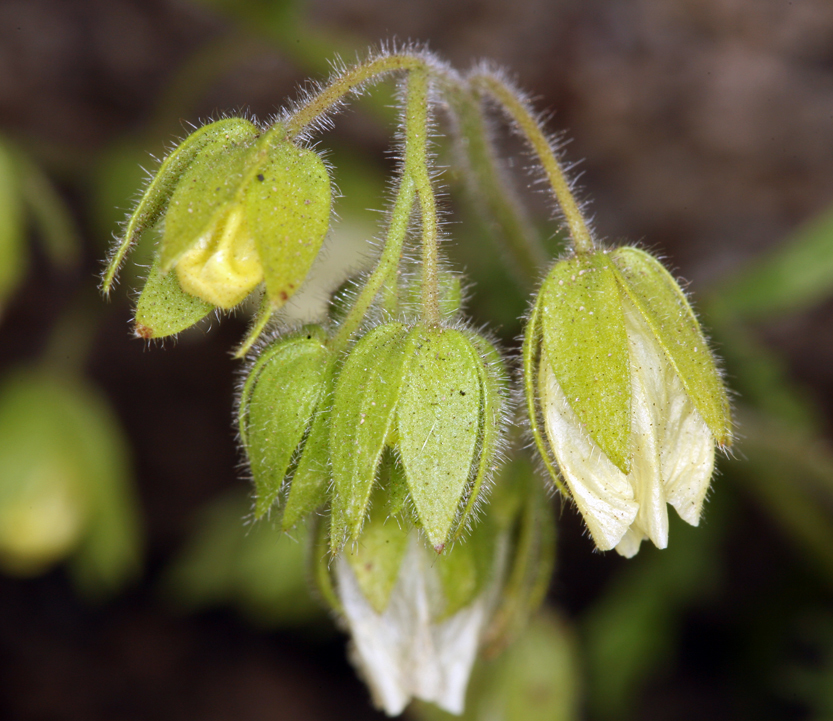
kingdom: Plantae
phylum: Tracheophyta
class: Magnoliopsida
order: Boraginales
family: Hydrophyllaceae
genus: Emmenanthe
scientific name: Emmenanthe penduliflora
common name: Whispering-bells
